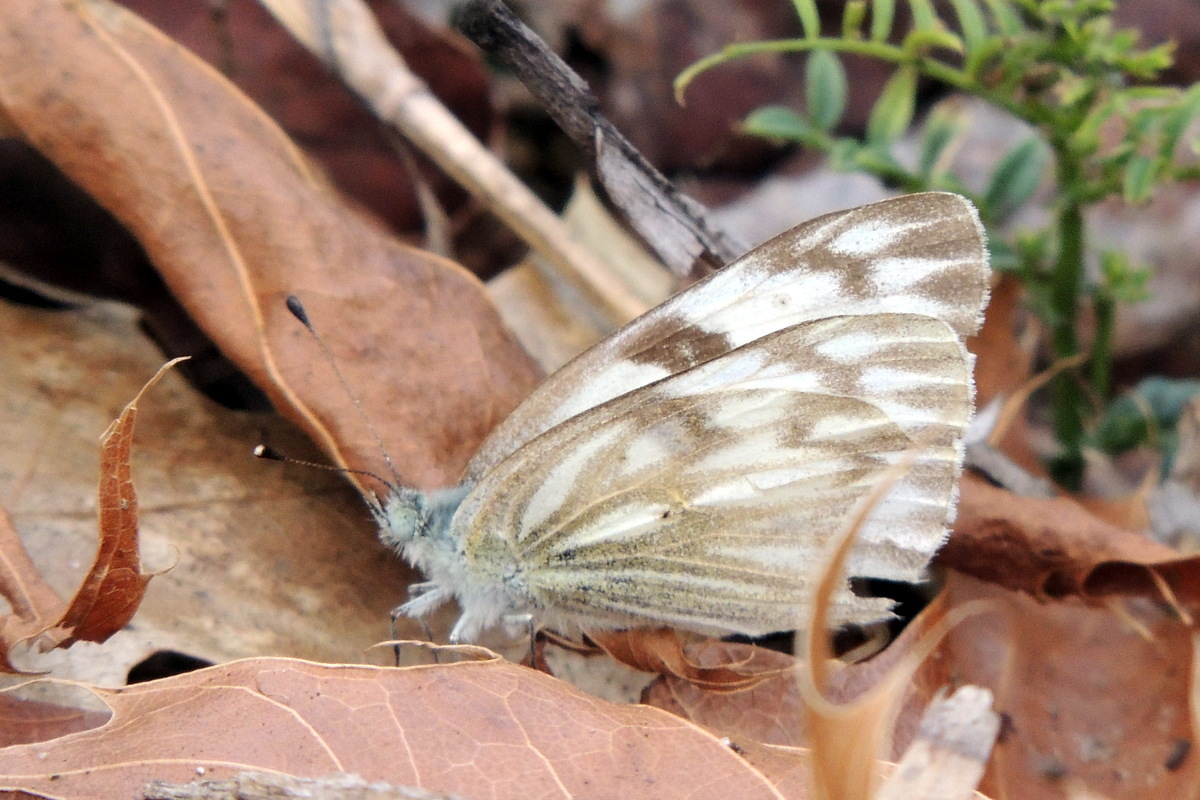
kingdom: Animalia
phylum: Arthropoda
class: Insecta
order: Lepidoptera
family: Pieridae
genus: Pontia
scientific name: Pontia protodice
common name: Checkered white
